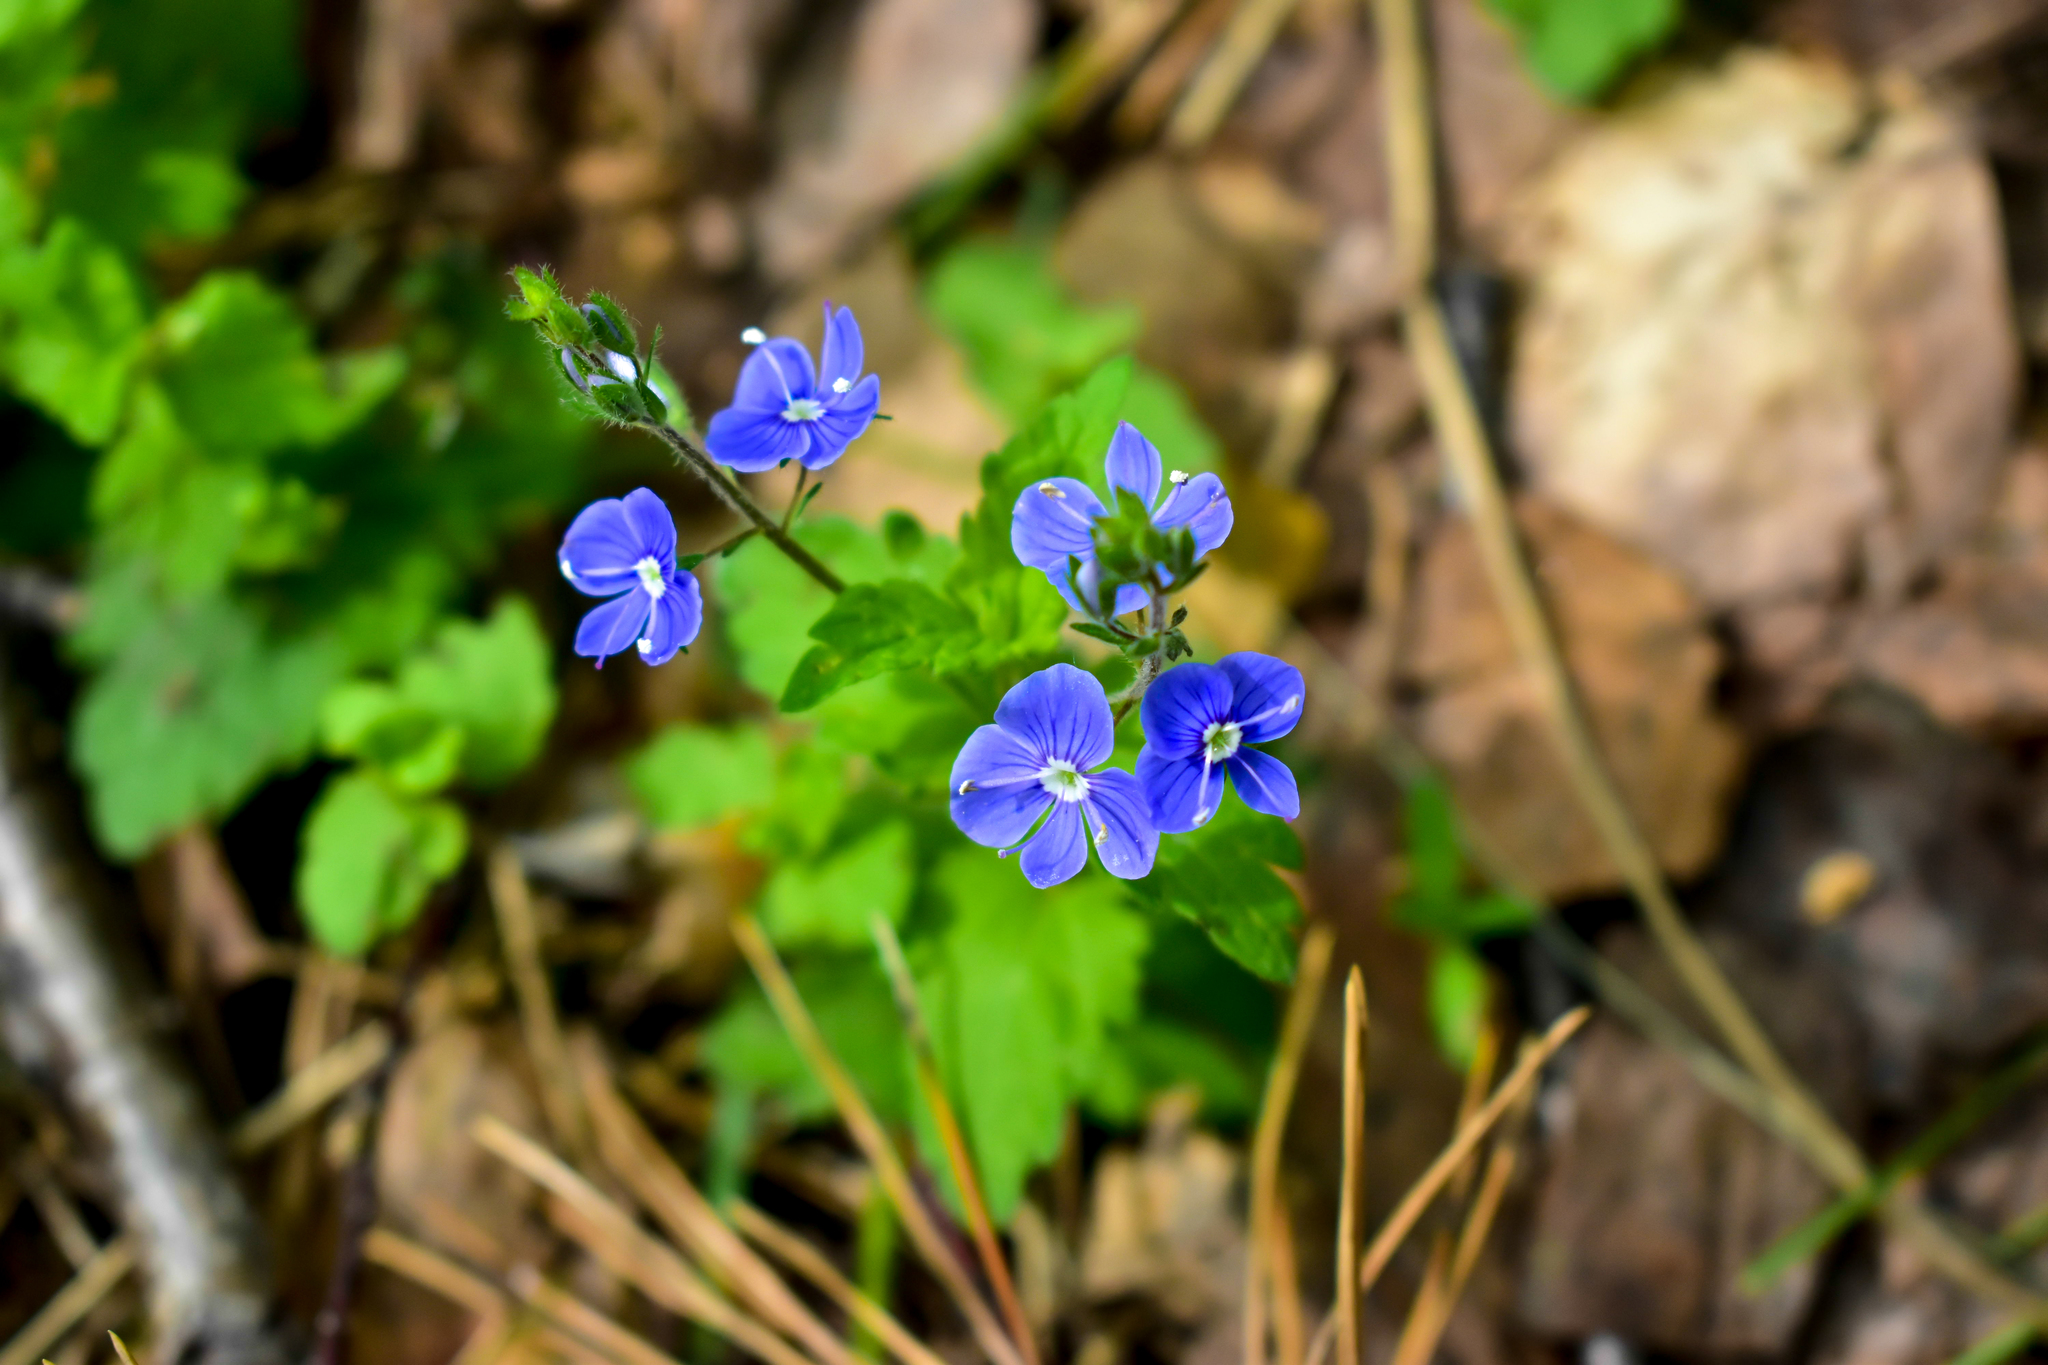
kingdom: Plantae
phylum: Tracheophyta
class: Magnoliopsida
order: Lamiales
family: Plantaginaceae
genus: Veronica
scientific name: Veronica chamaedrys
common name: Germander speedwell
